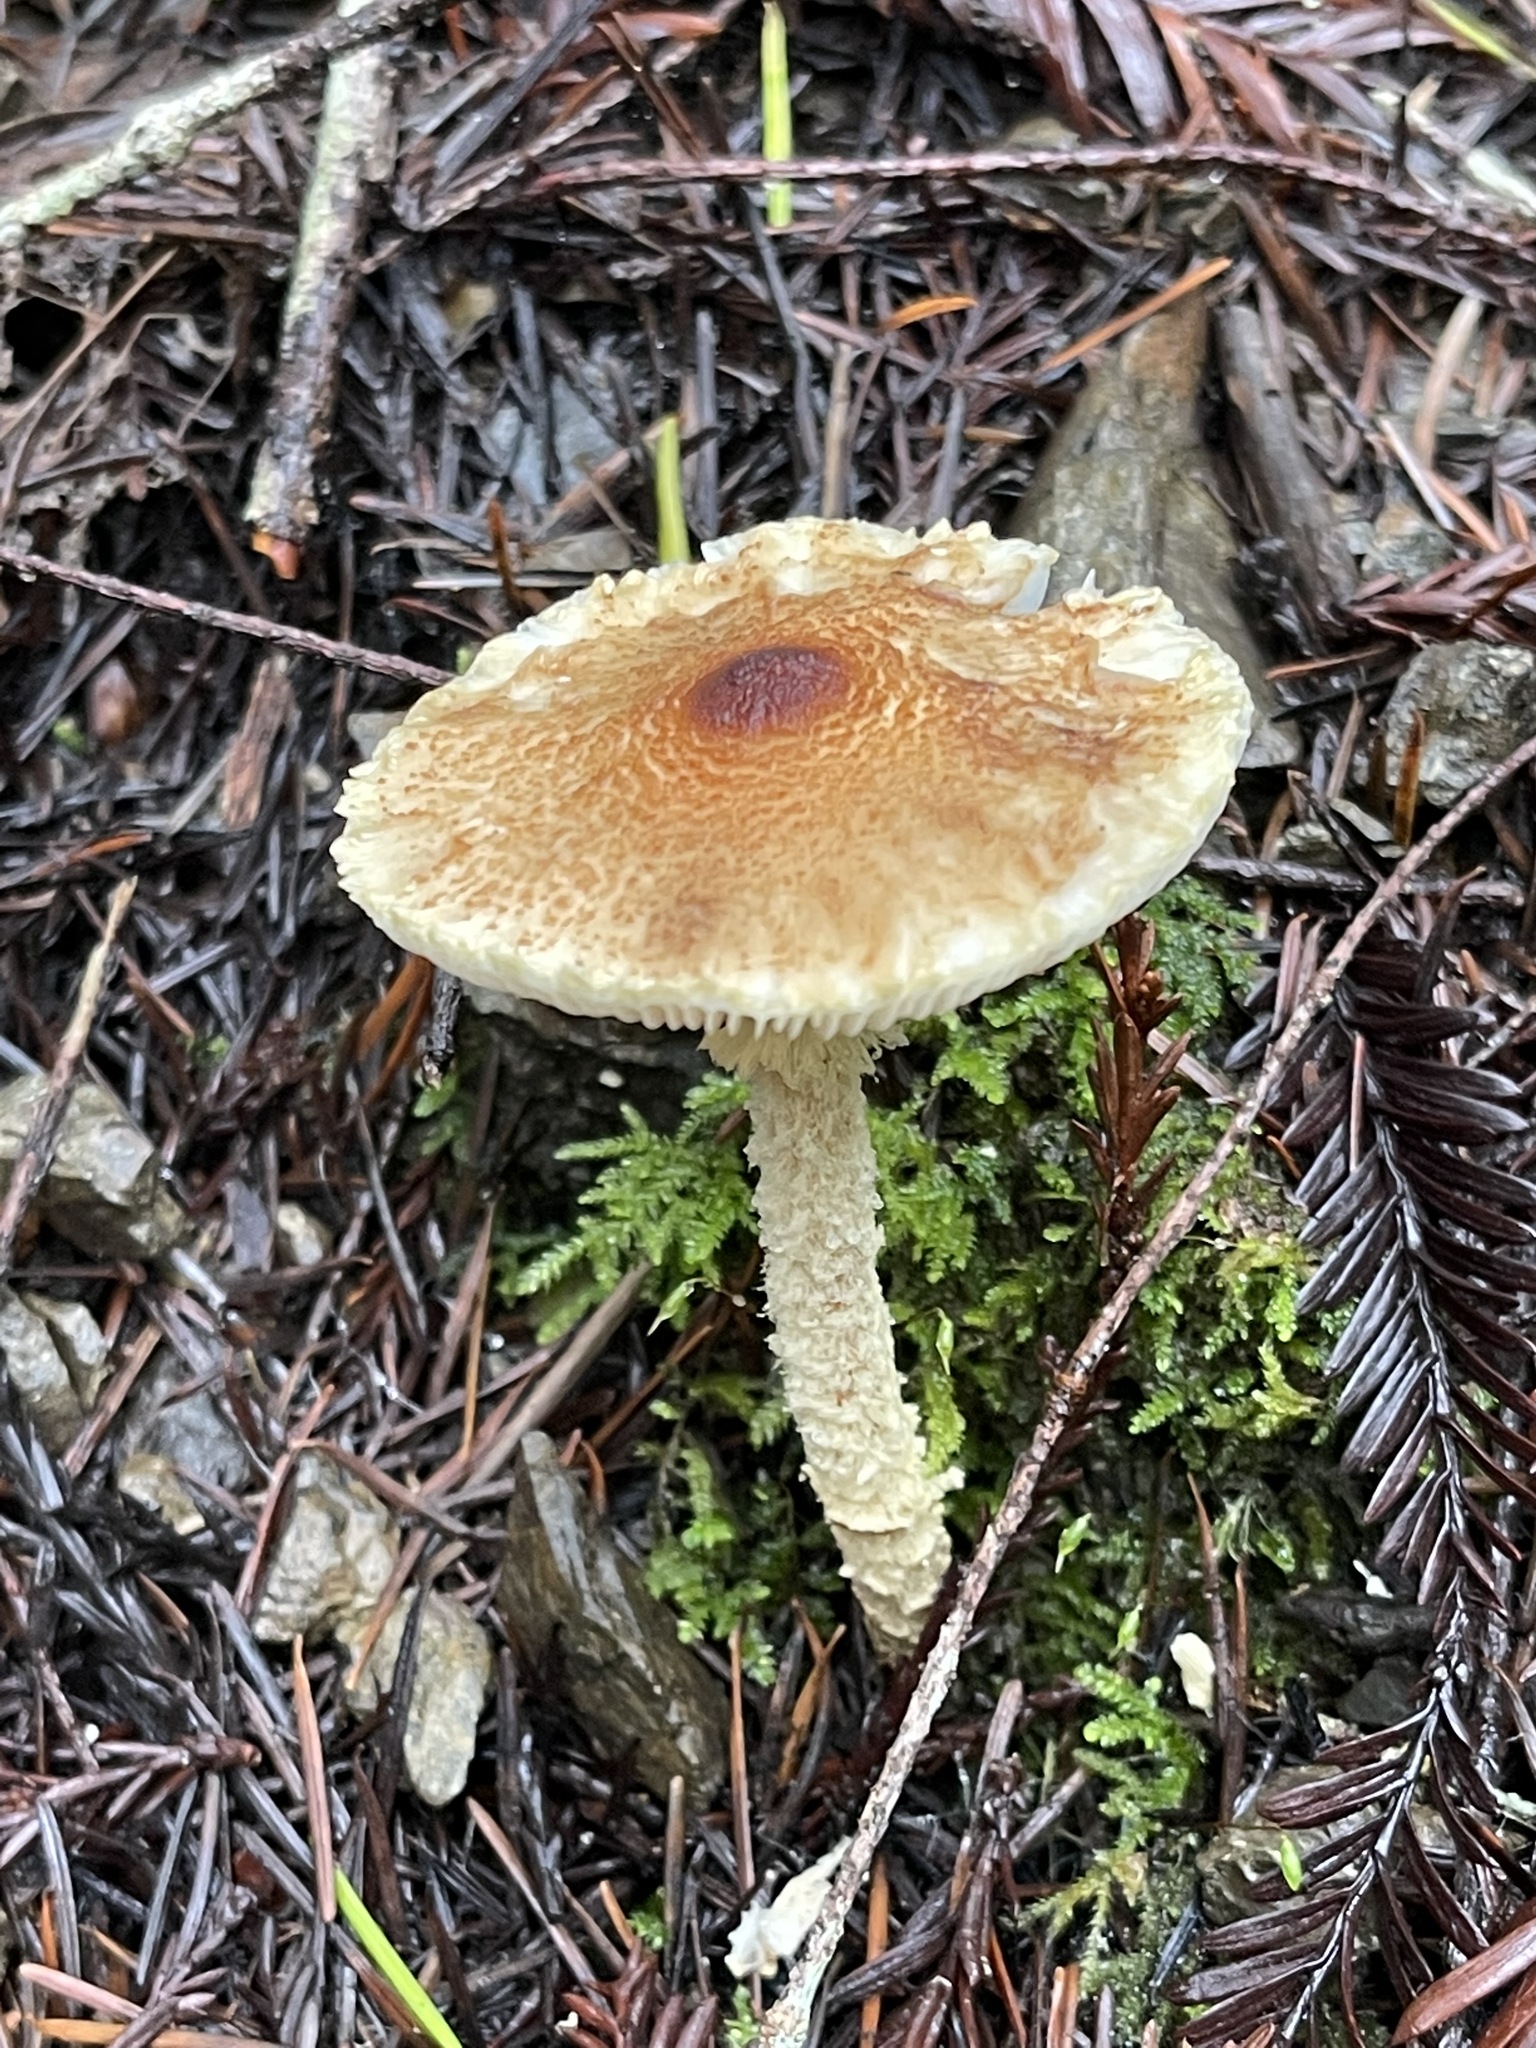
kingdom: Fungi
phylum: Basidiomycota
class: Agaricomycetes
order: Agaricales
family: Agaricaceae
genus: Lepiota
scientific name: Lepiota magnispora
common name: Yellowfoot dapperling
